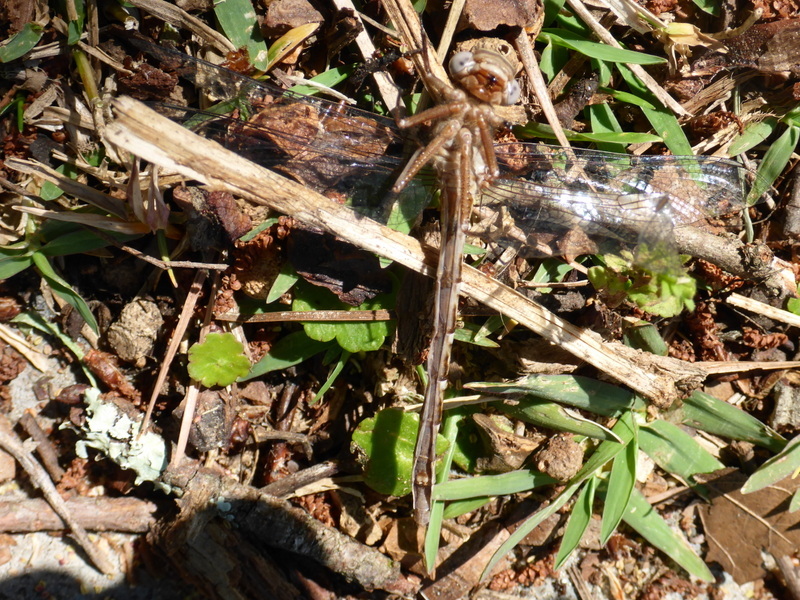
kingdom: Animalia
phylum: Arthropoda
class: Insecta
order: Odonata
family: Gomphidae
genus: Phanogomphus
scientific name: Phanogomphus lividus
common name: Ashy clubtail
